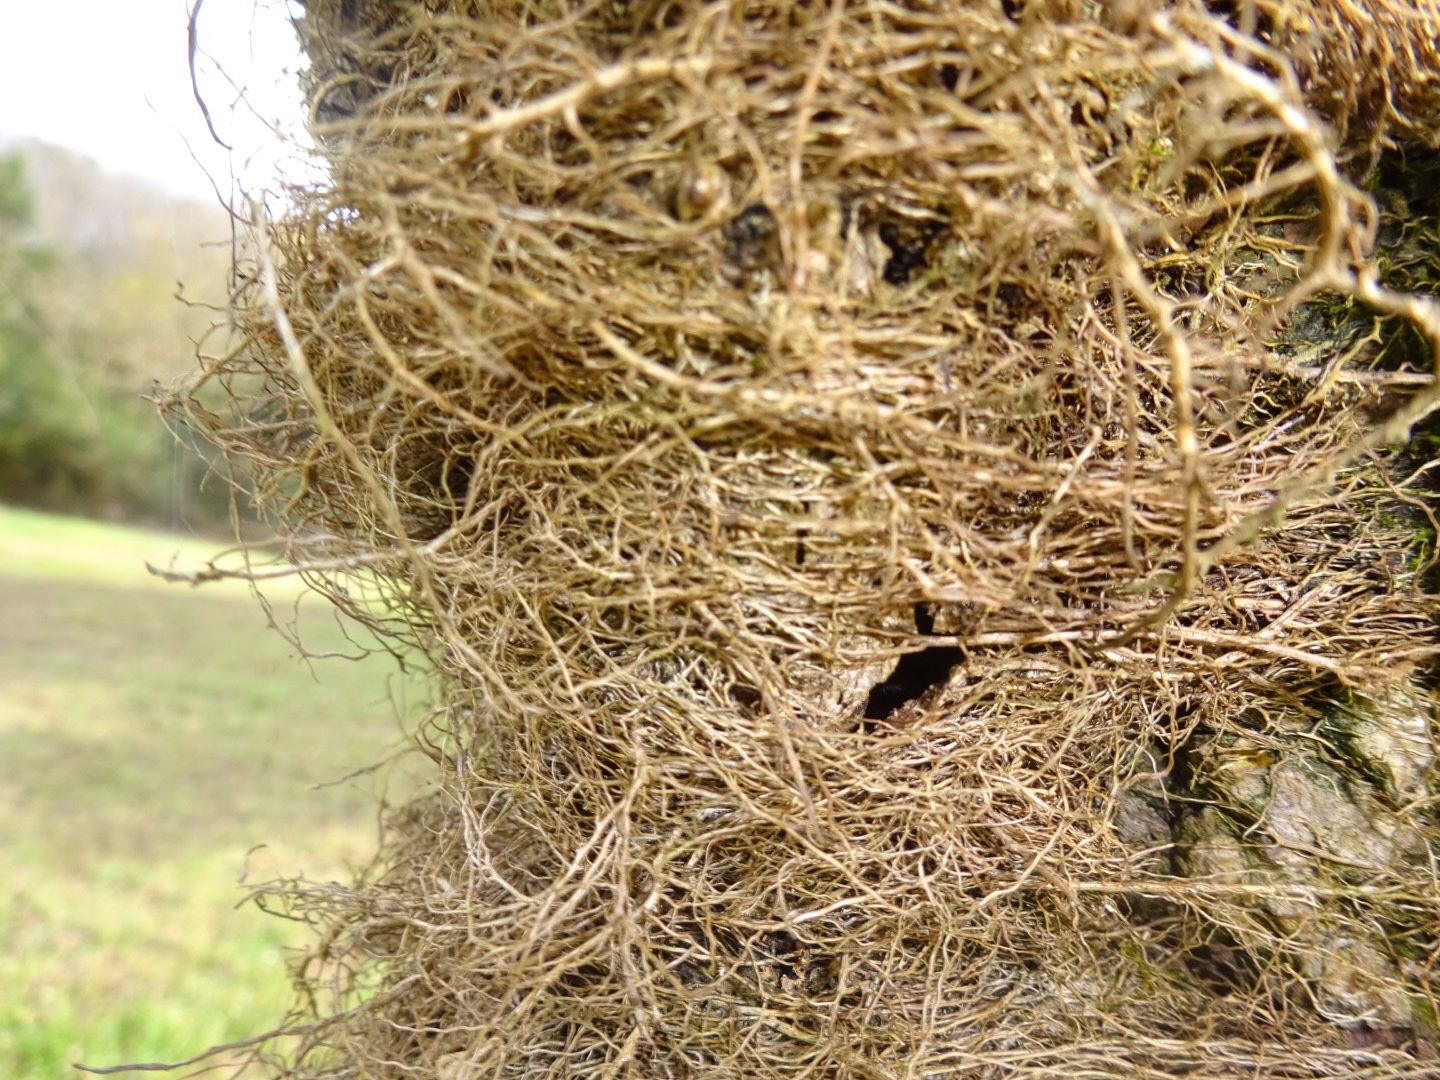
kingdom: Plantae
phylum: Tracheophyta
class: Magnoliopsida
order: Sapindales
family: Anacardiaceae
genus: Toxicodendron
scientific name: Toxicodendron radicans
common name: Poison ivy
